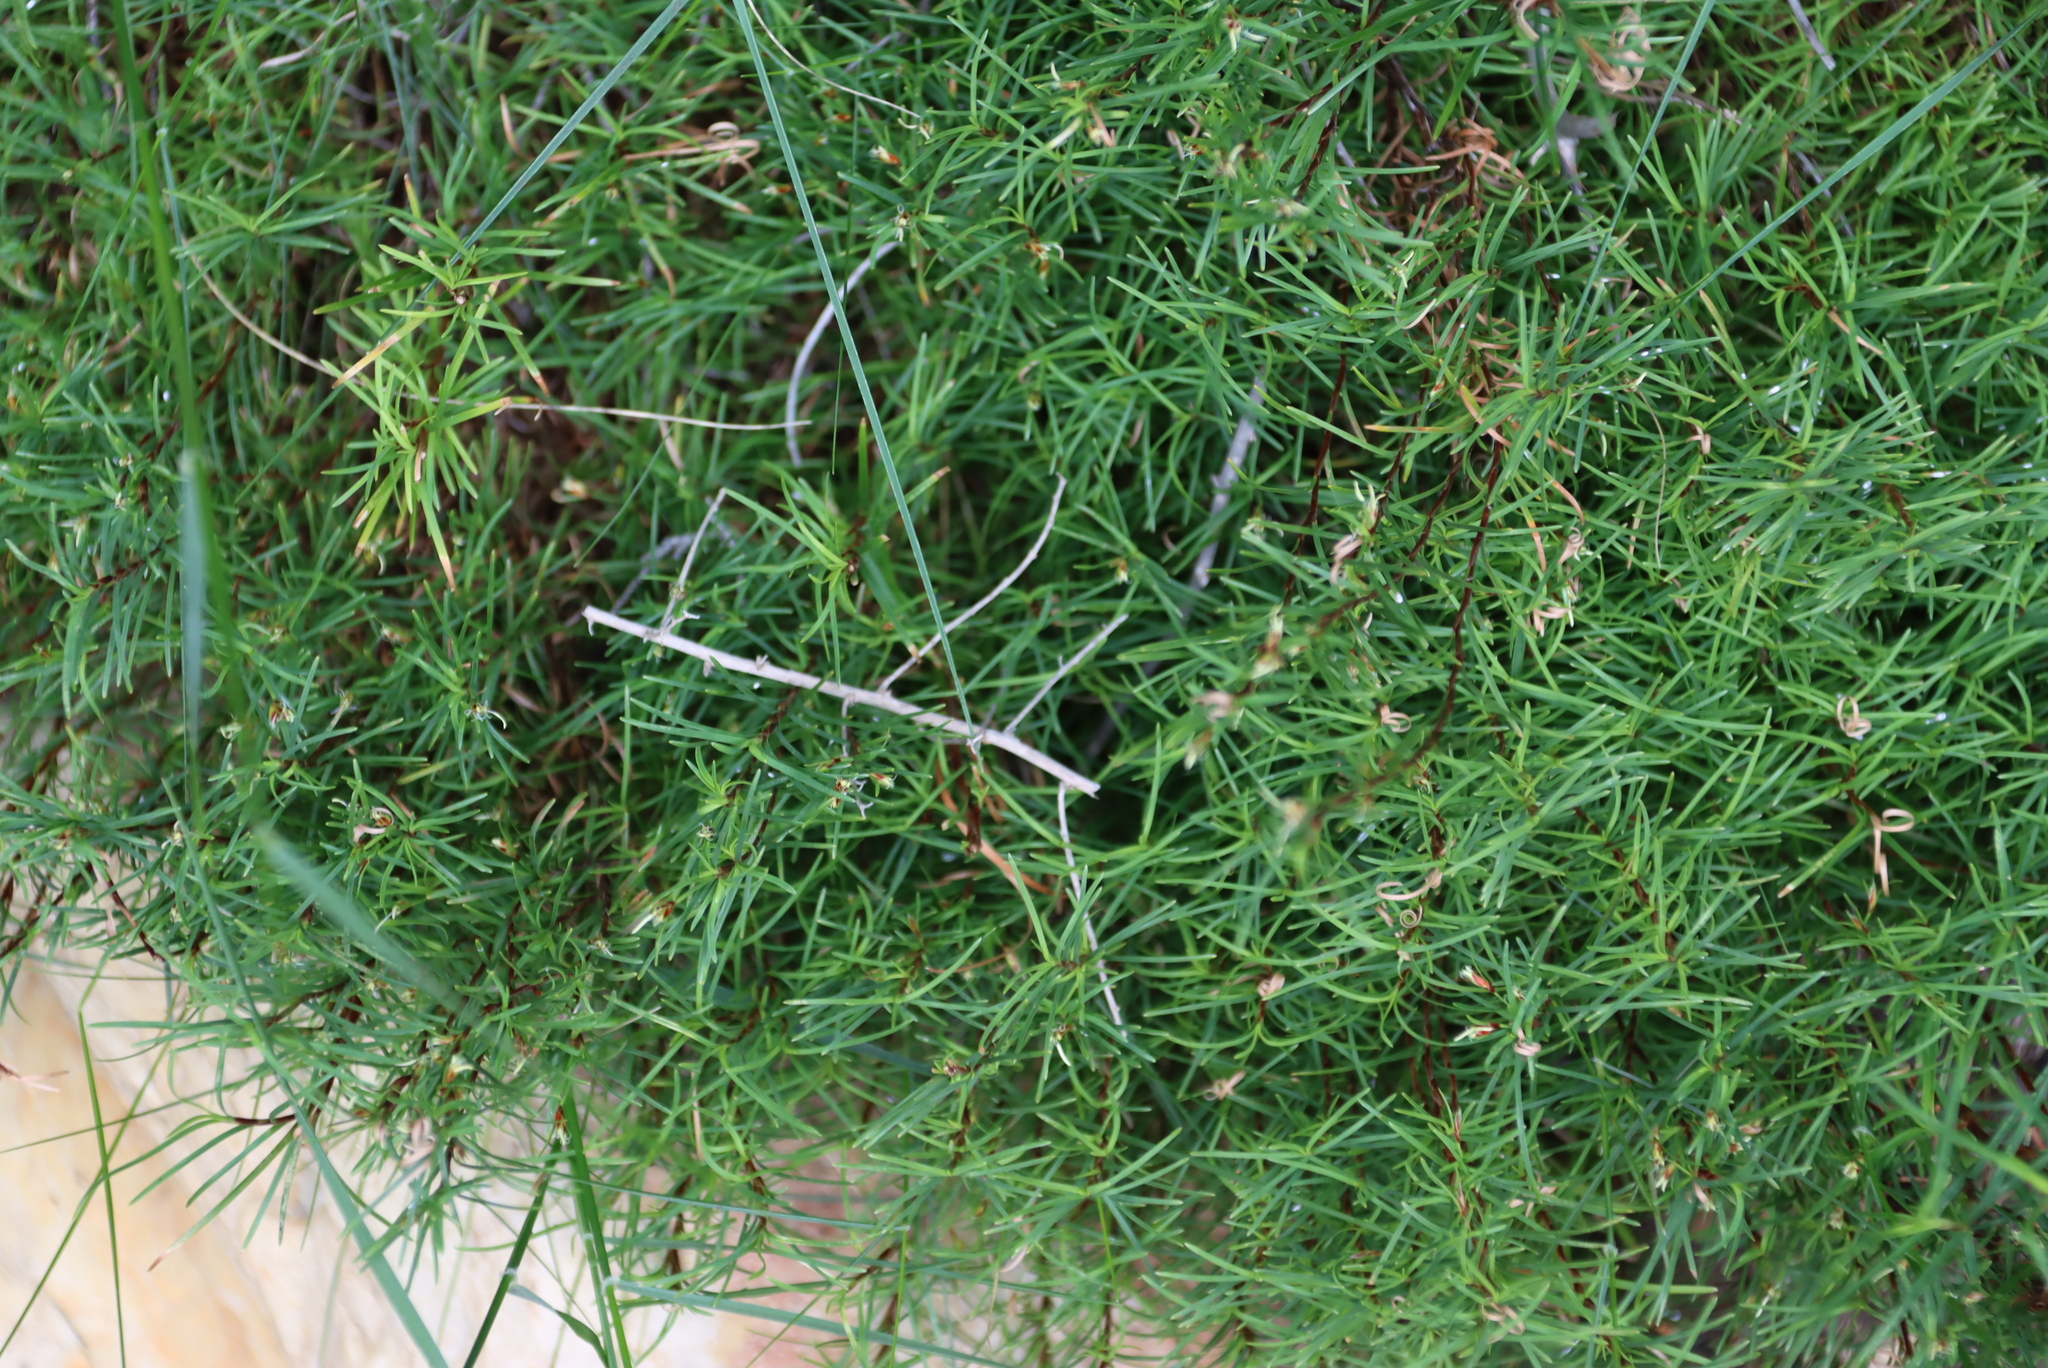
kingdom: Plantae
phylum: Tracheophyta
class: Liliopsida
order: Poales
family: Cyperaceae
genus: Ficinia
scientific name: Ficinia ramosissima
